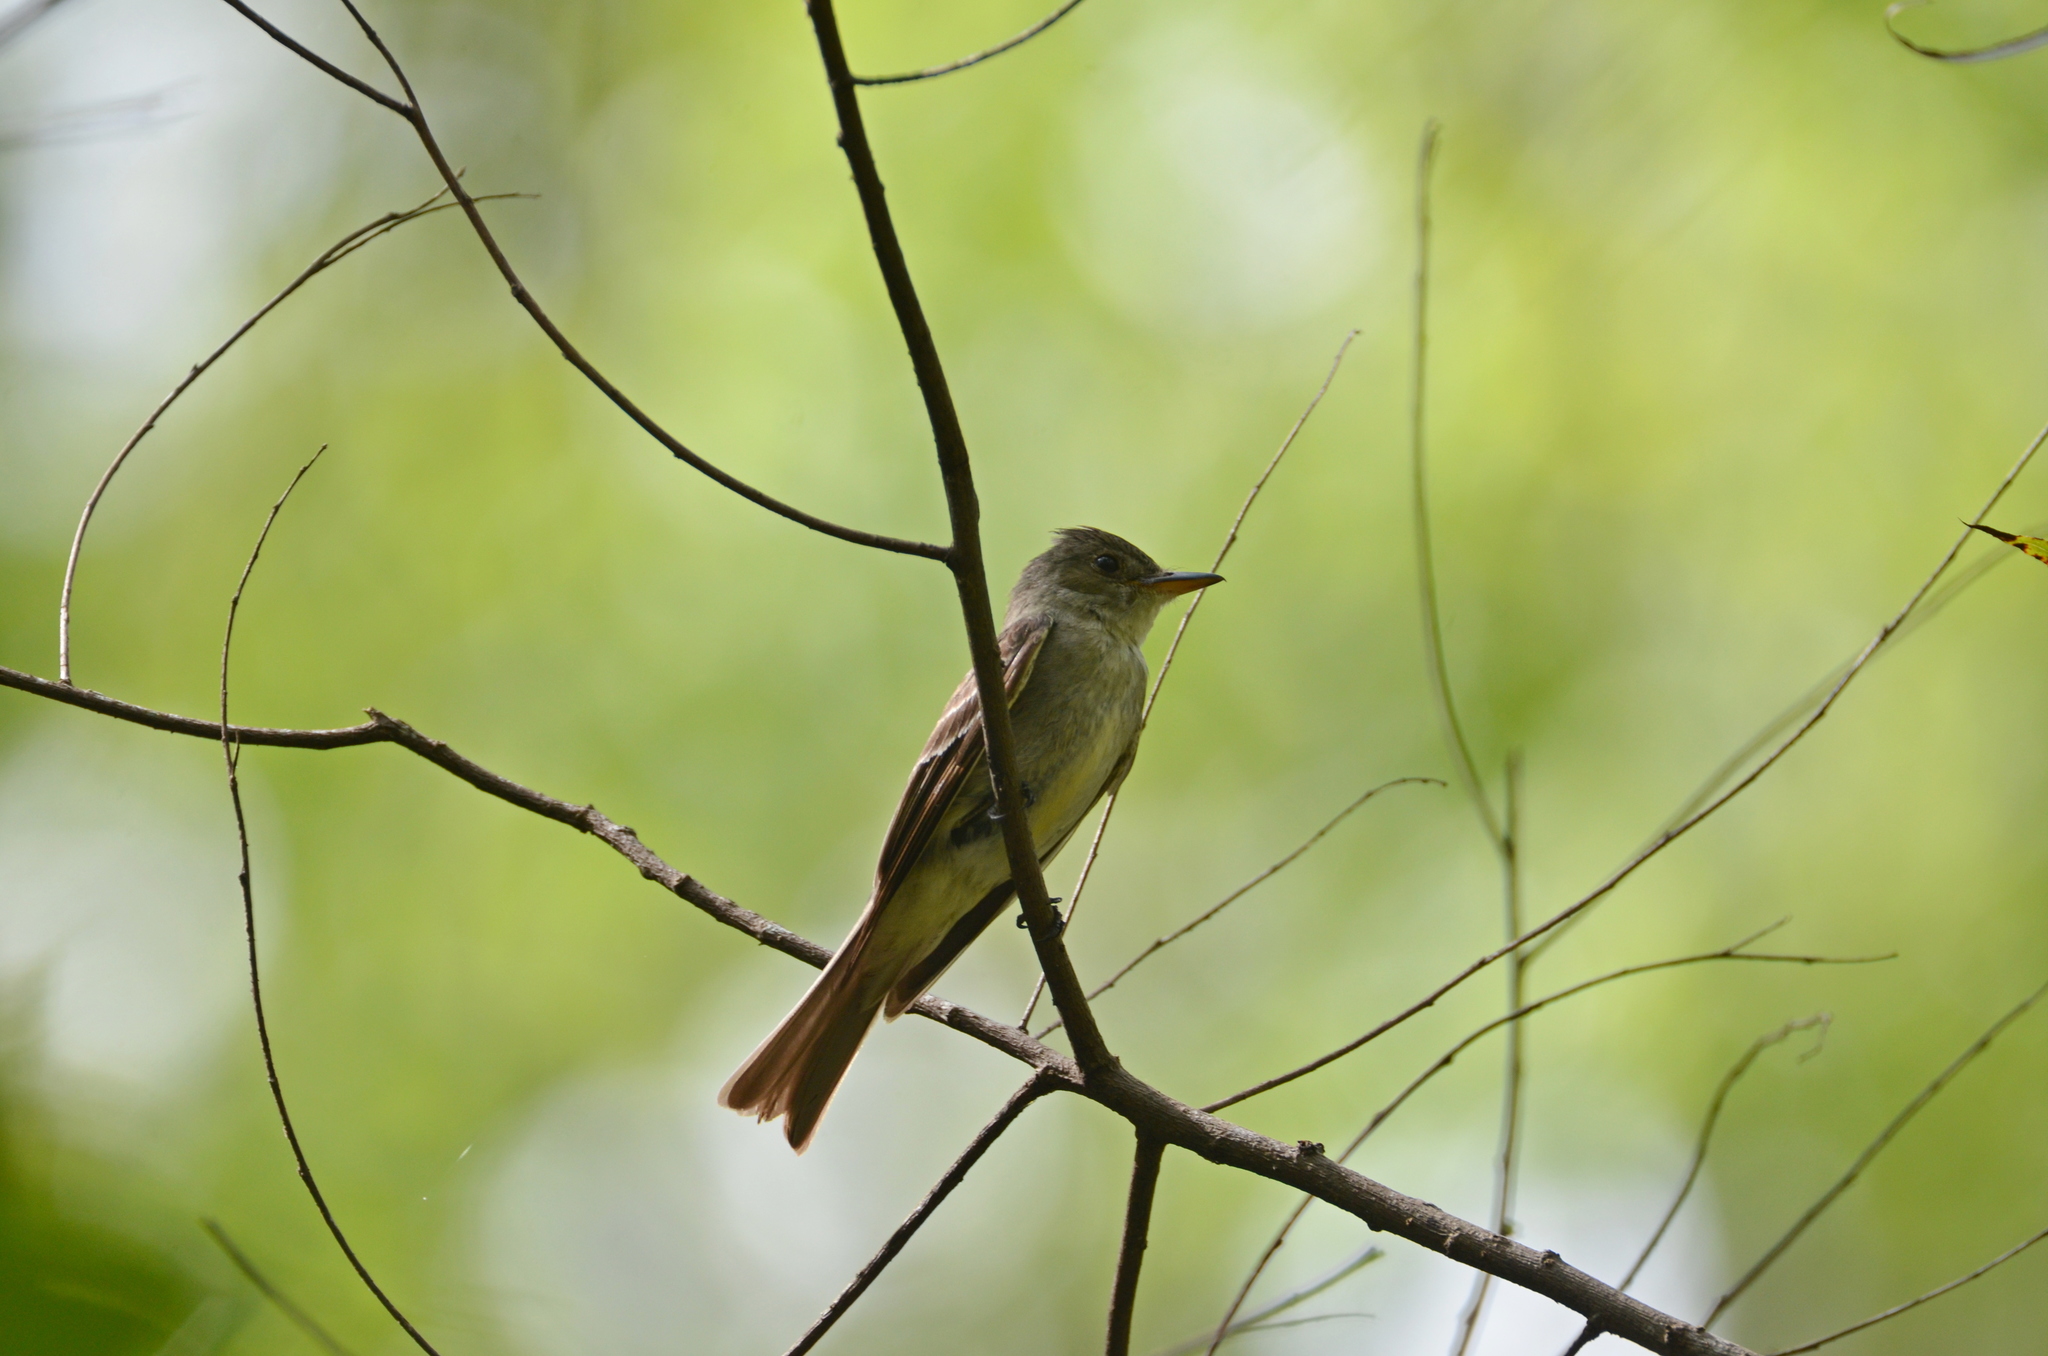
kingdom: Animalia
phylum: Chordata
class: Aves
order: Passeriformes
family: Tyrannidae
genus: Contopus
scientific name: Contopus virens
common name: Eastern wood-pewee
